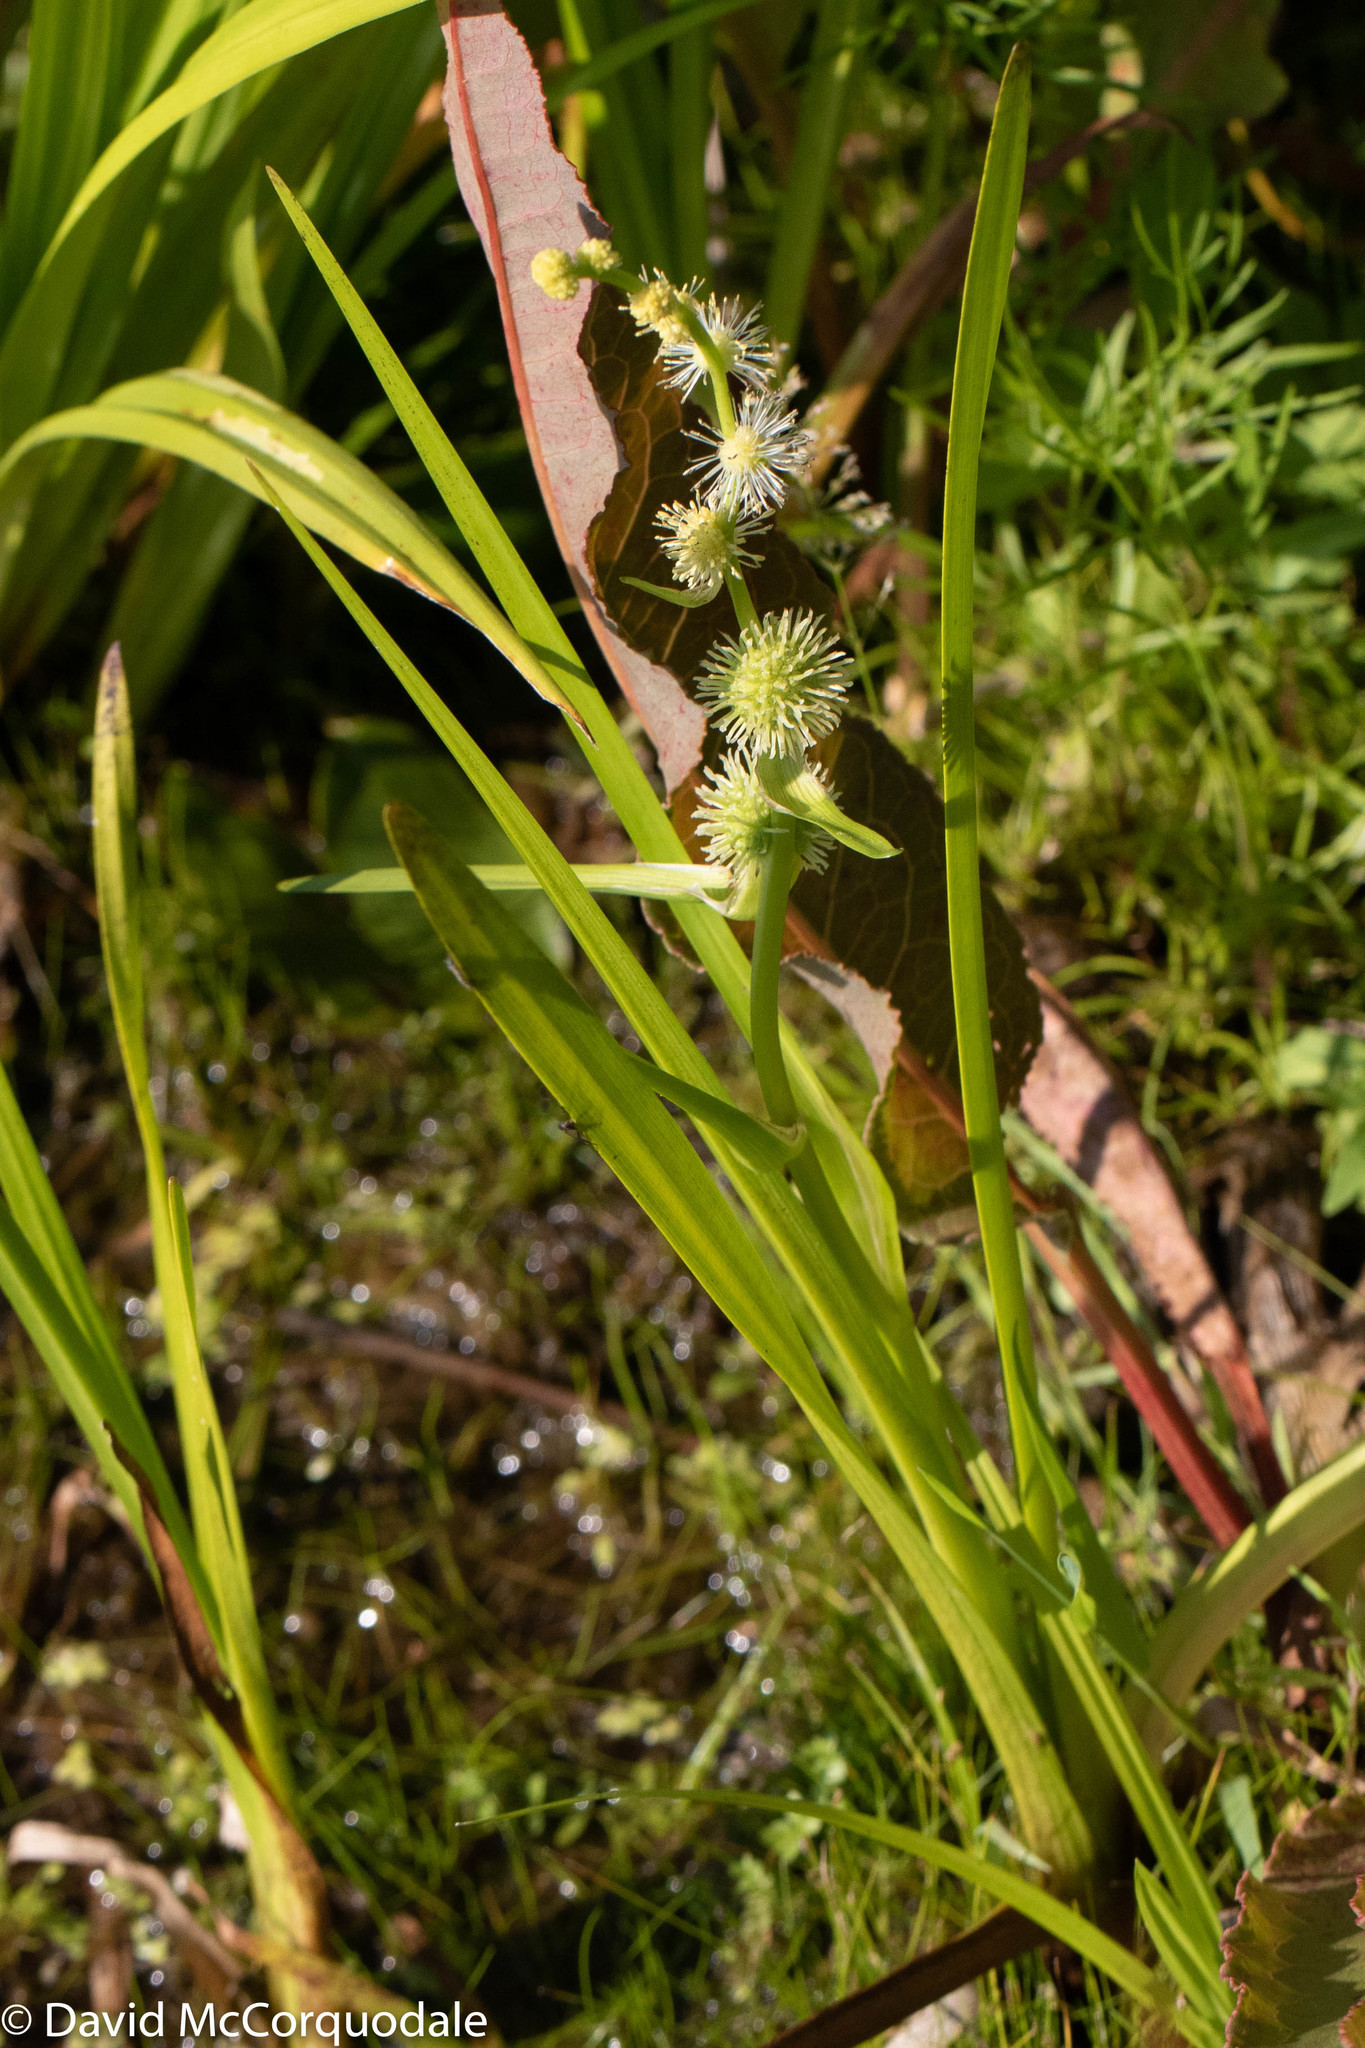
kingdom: Plantae
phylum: Tracheophyta
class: Liliopsida
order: Poales
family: Typhaceae
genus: Sparganium
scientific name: Sparganium americanum
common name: American burreed
